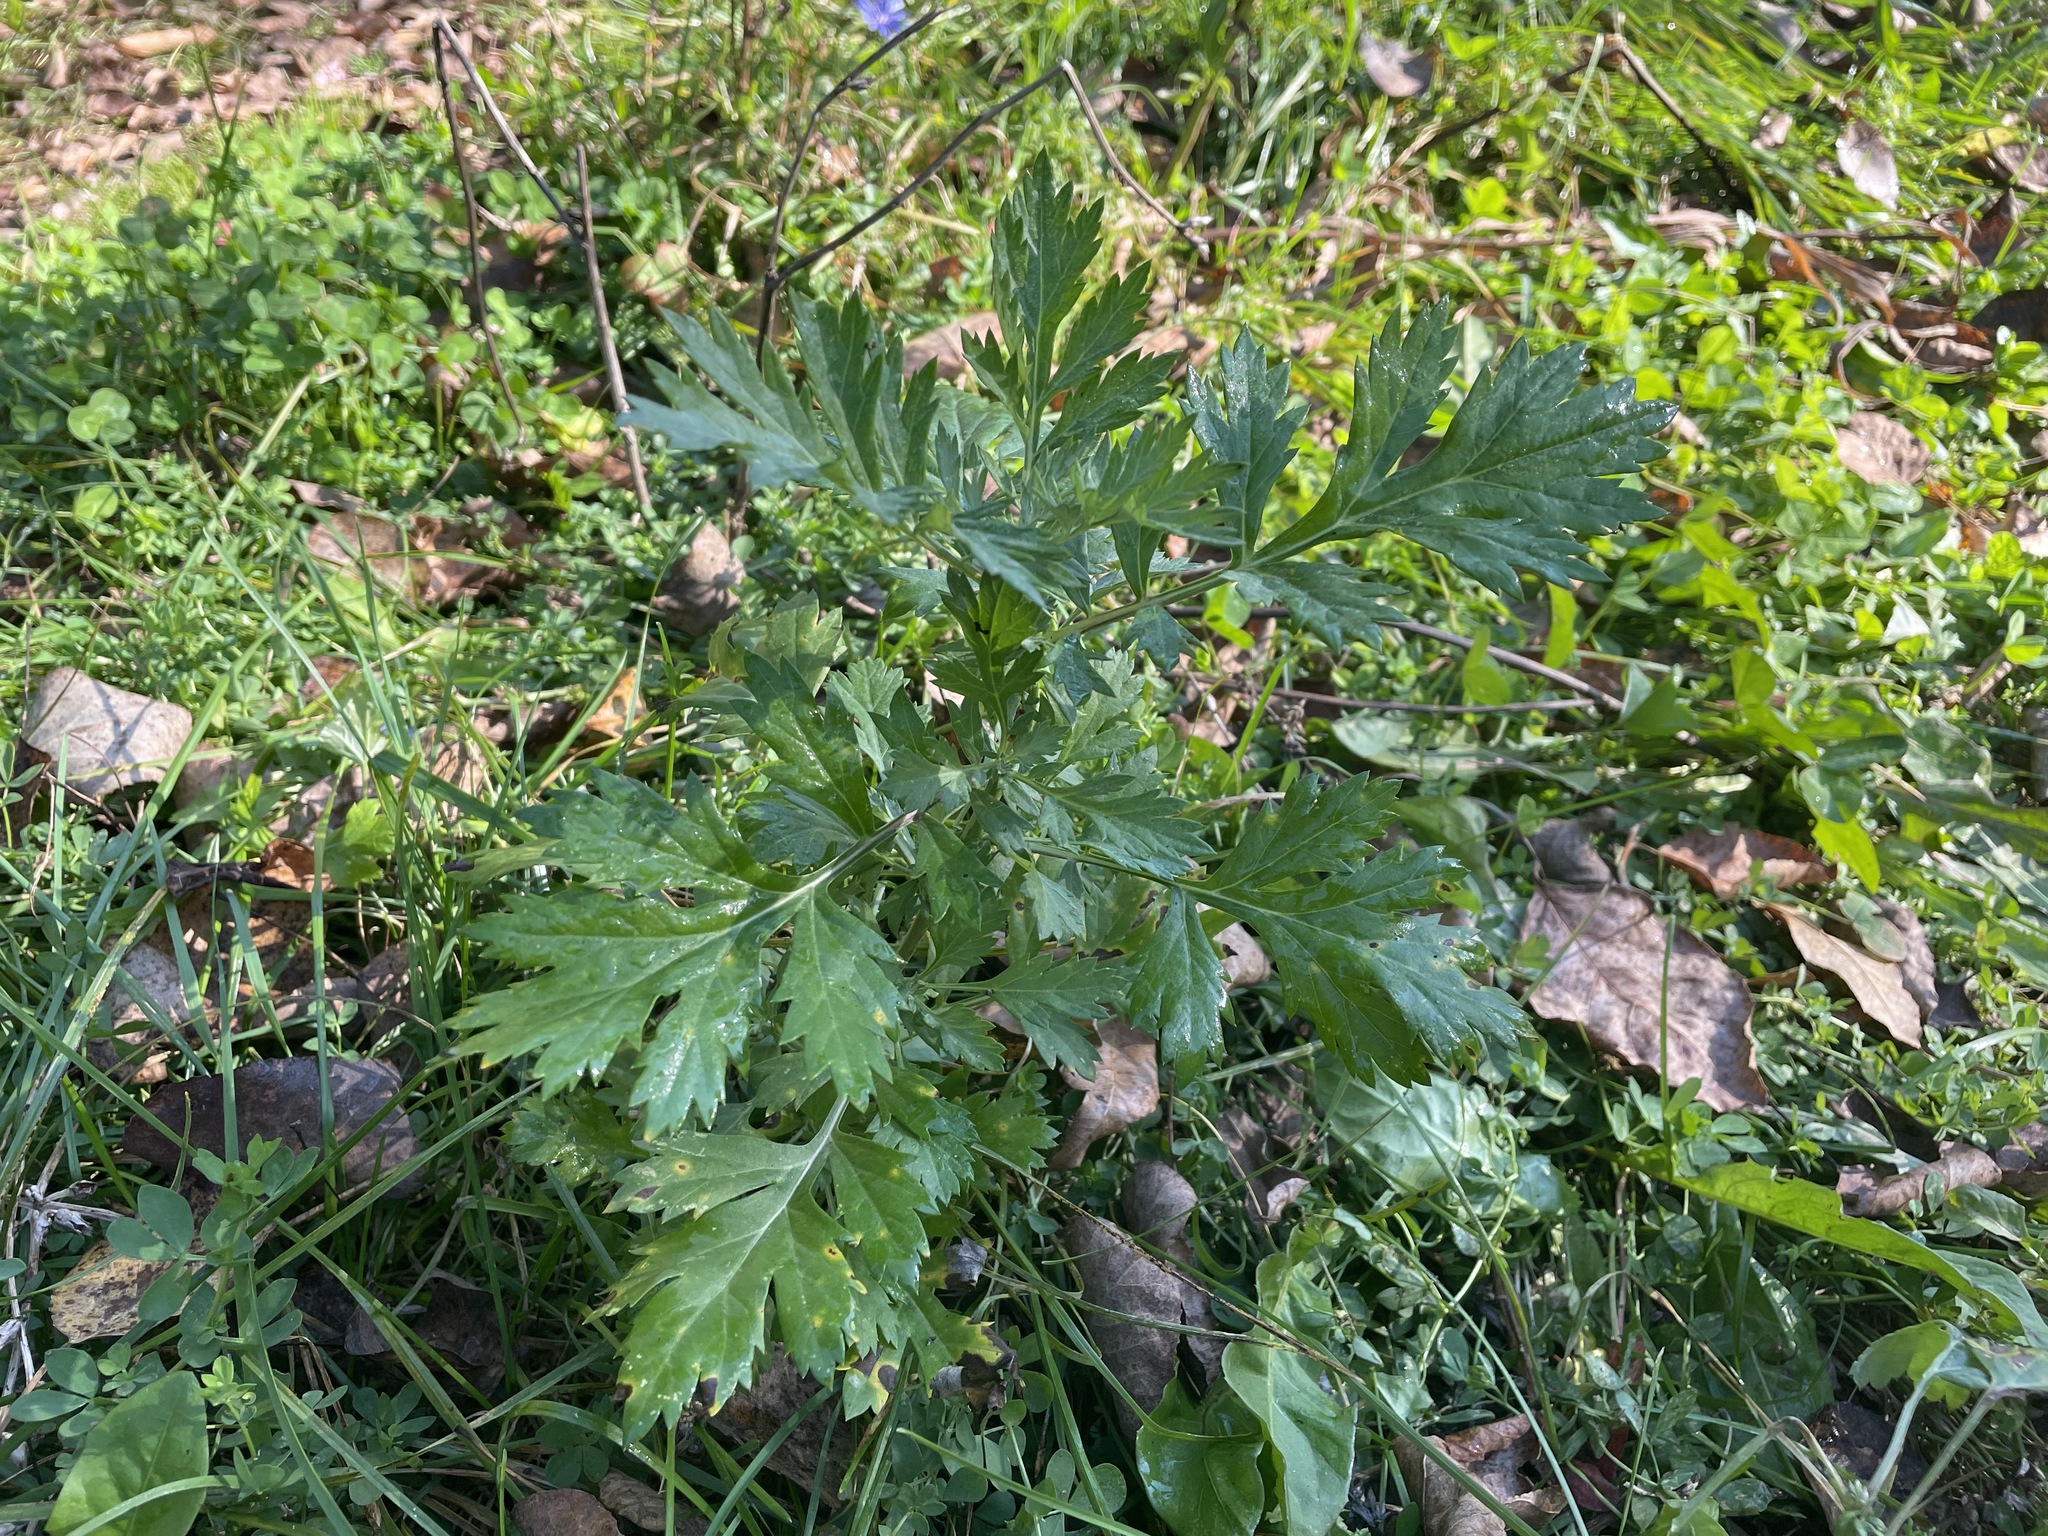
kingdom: Plantae
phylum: Tracheophyta
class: Magnoliopsida
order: Asterales
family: Asteraceae
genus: Artemisia
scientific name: Artemisia vulgaris
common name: Mugwort
